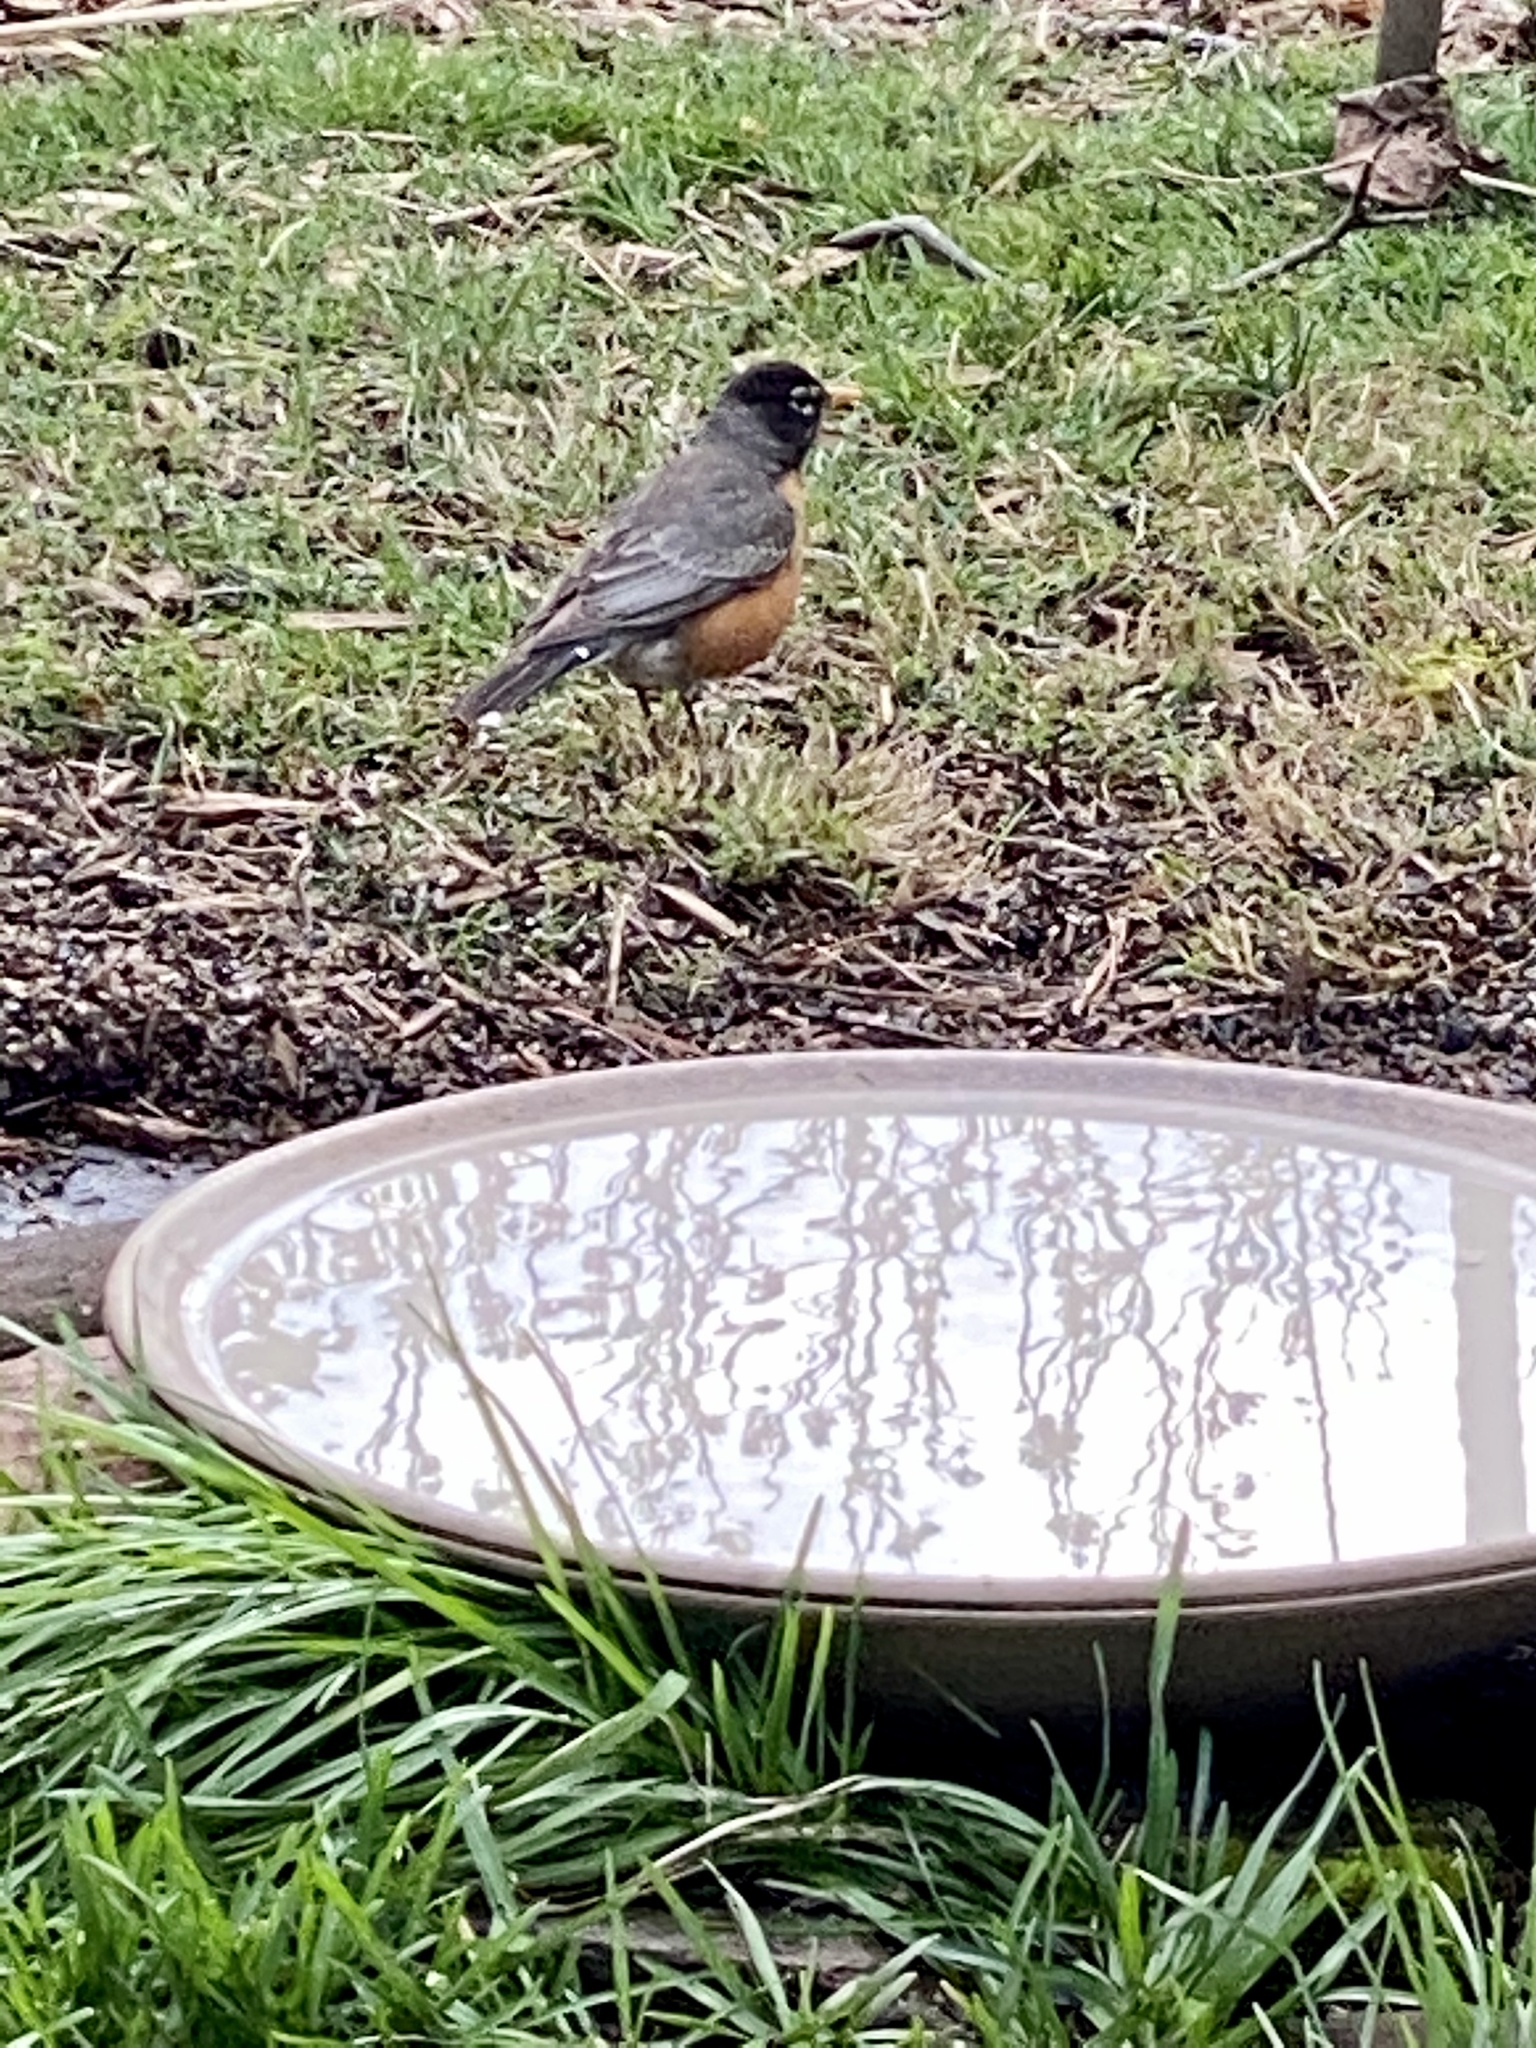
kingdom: Animalia
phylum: Chordata
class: Aves
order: Passeriformes
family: Turdidae
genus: Turdus
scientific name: Turdus migratorius
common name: American robin
